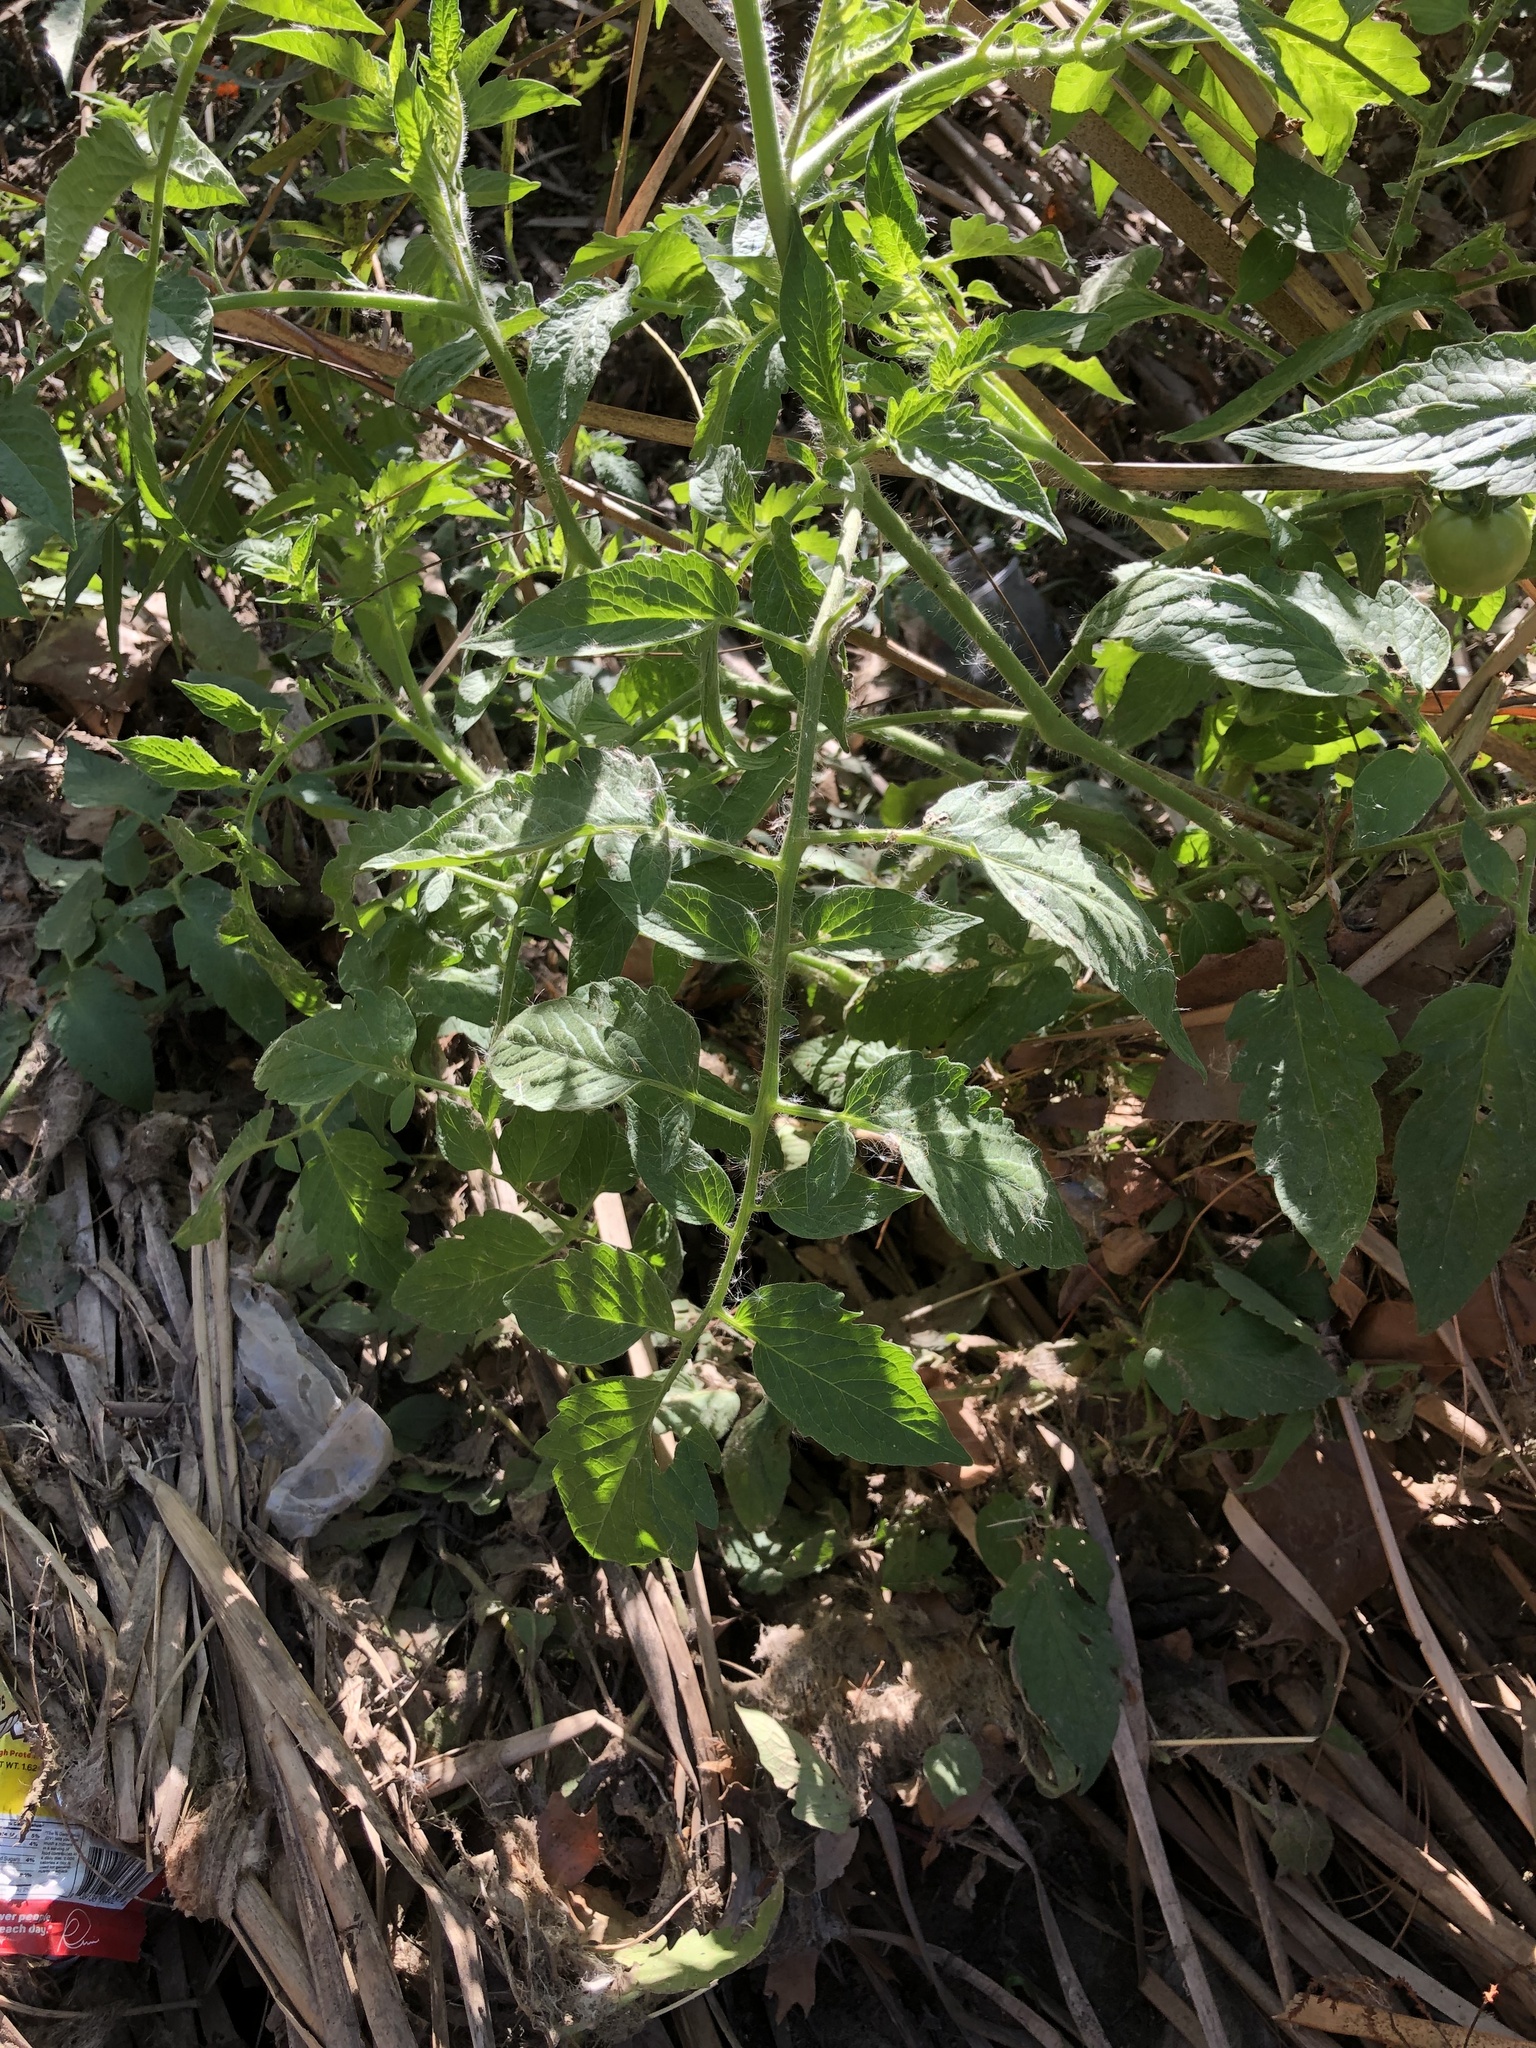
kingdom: Plantae
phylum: Tracheophyta
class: Magnoliopsida
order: Solanales
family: Solanaceae
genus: Solanum
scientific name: Solanum lycopersicum
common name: Garden tomato
